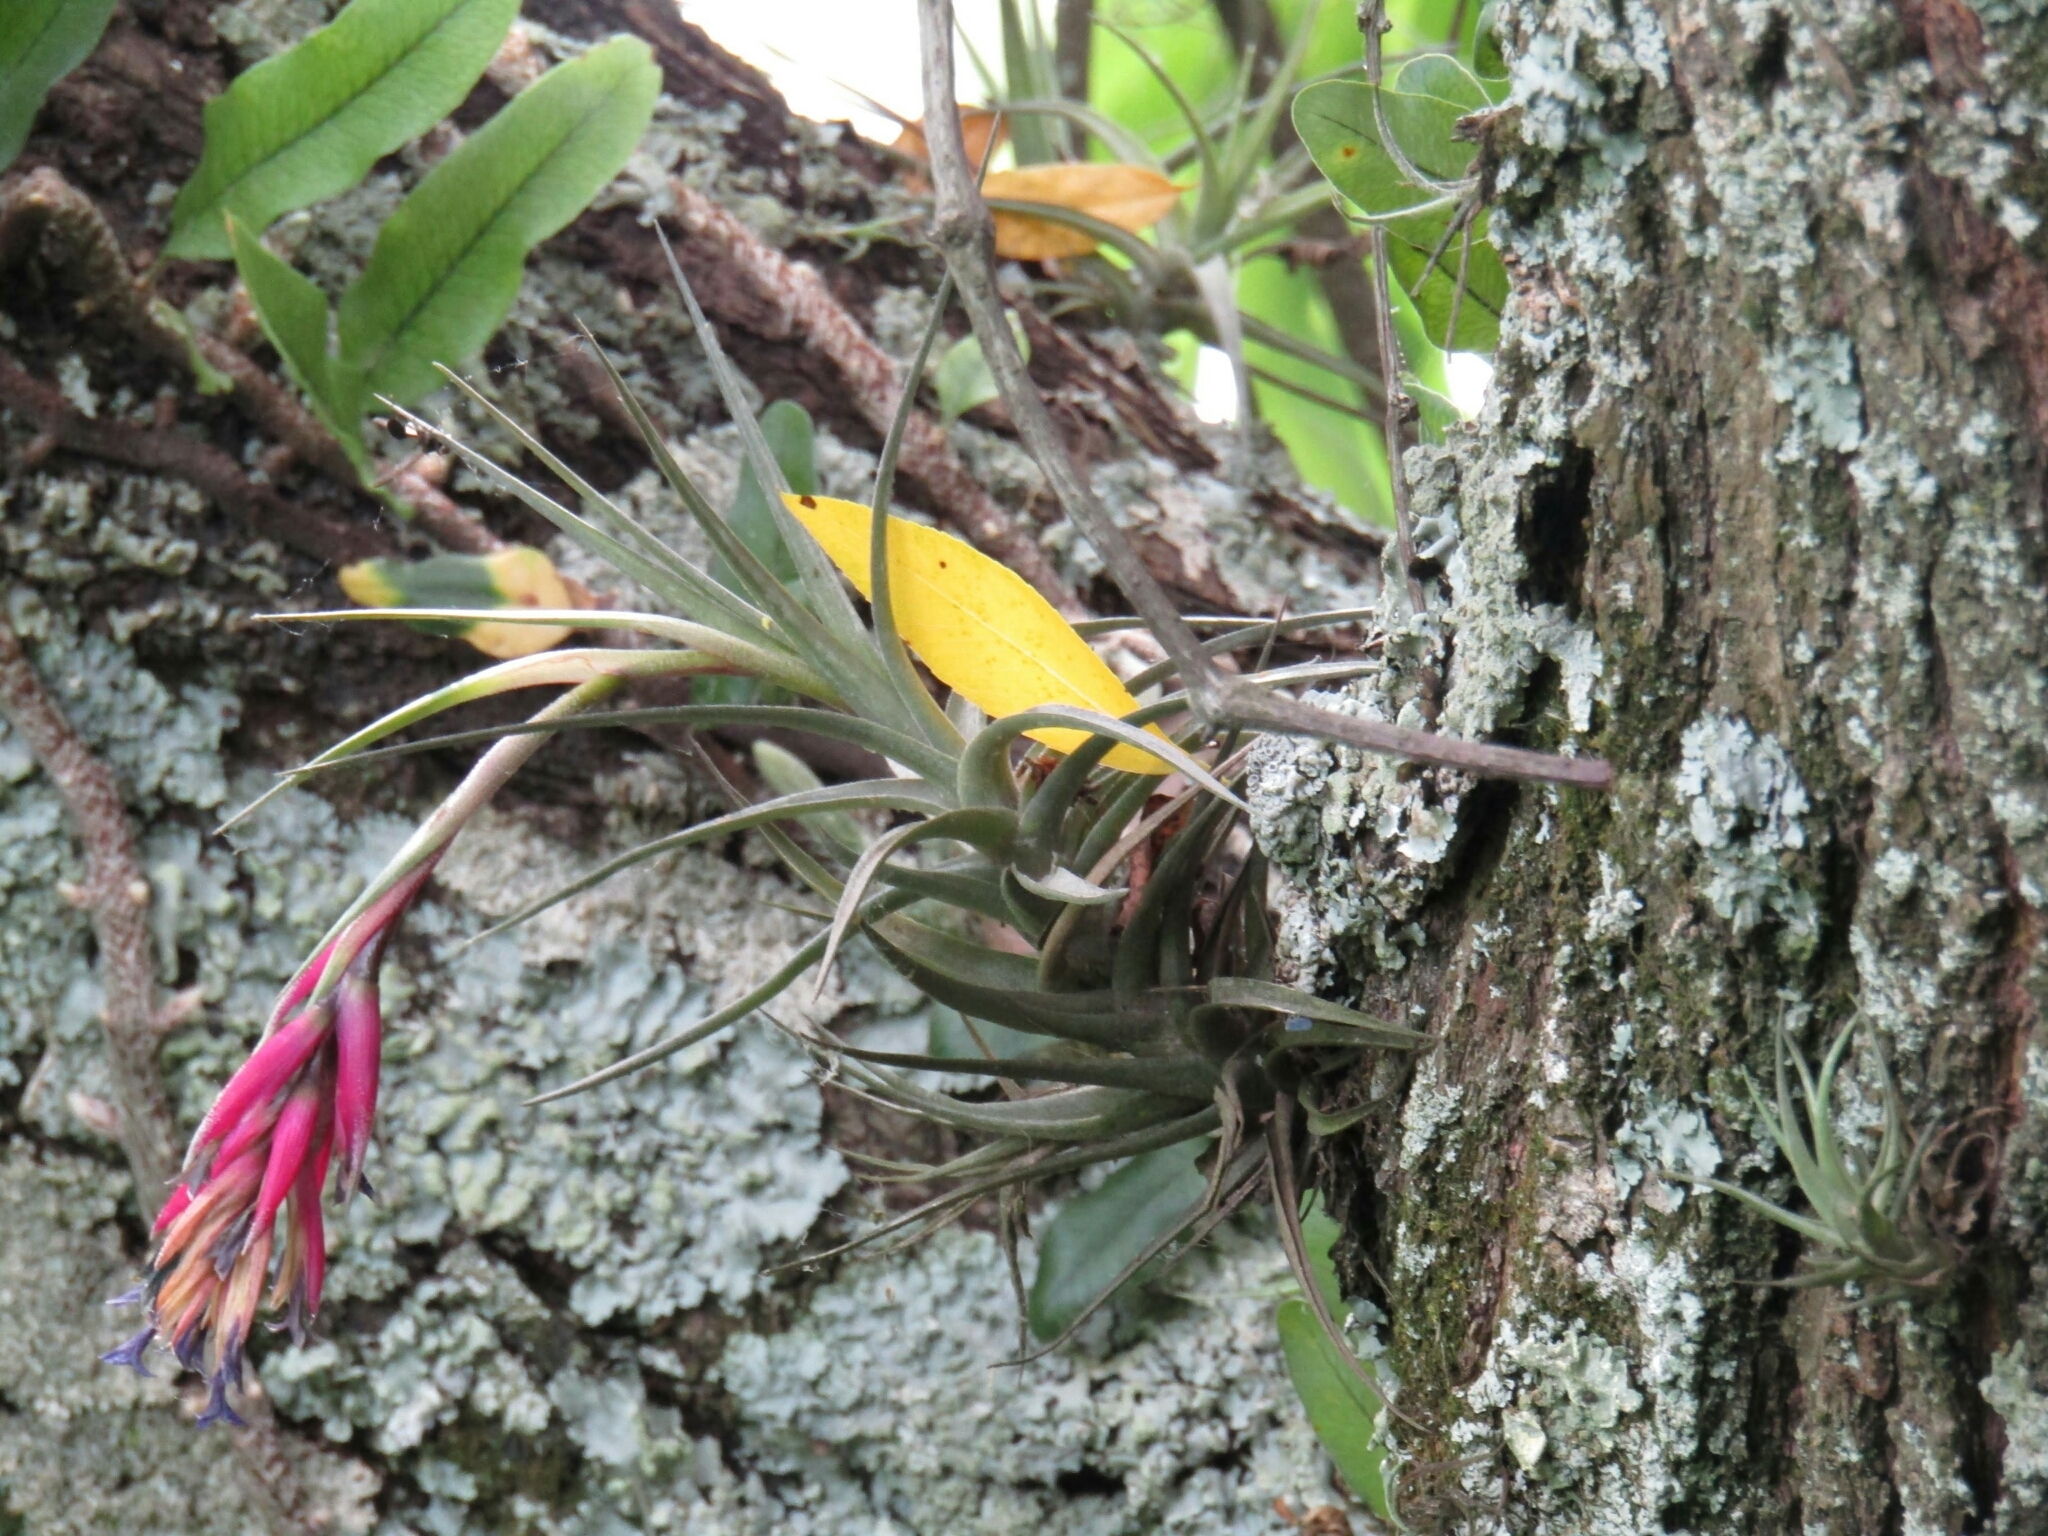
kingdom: Plantae
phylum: Tracheophyta
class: Liliopsida
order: Poales
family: Bromeliaceae
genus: Tillandsia
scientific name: Tillandsia aeranthos
